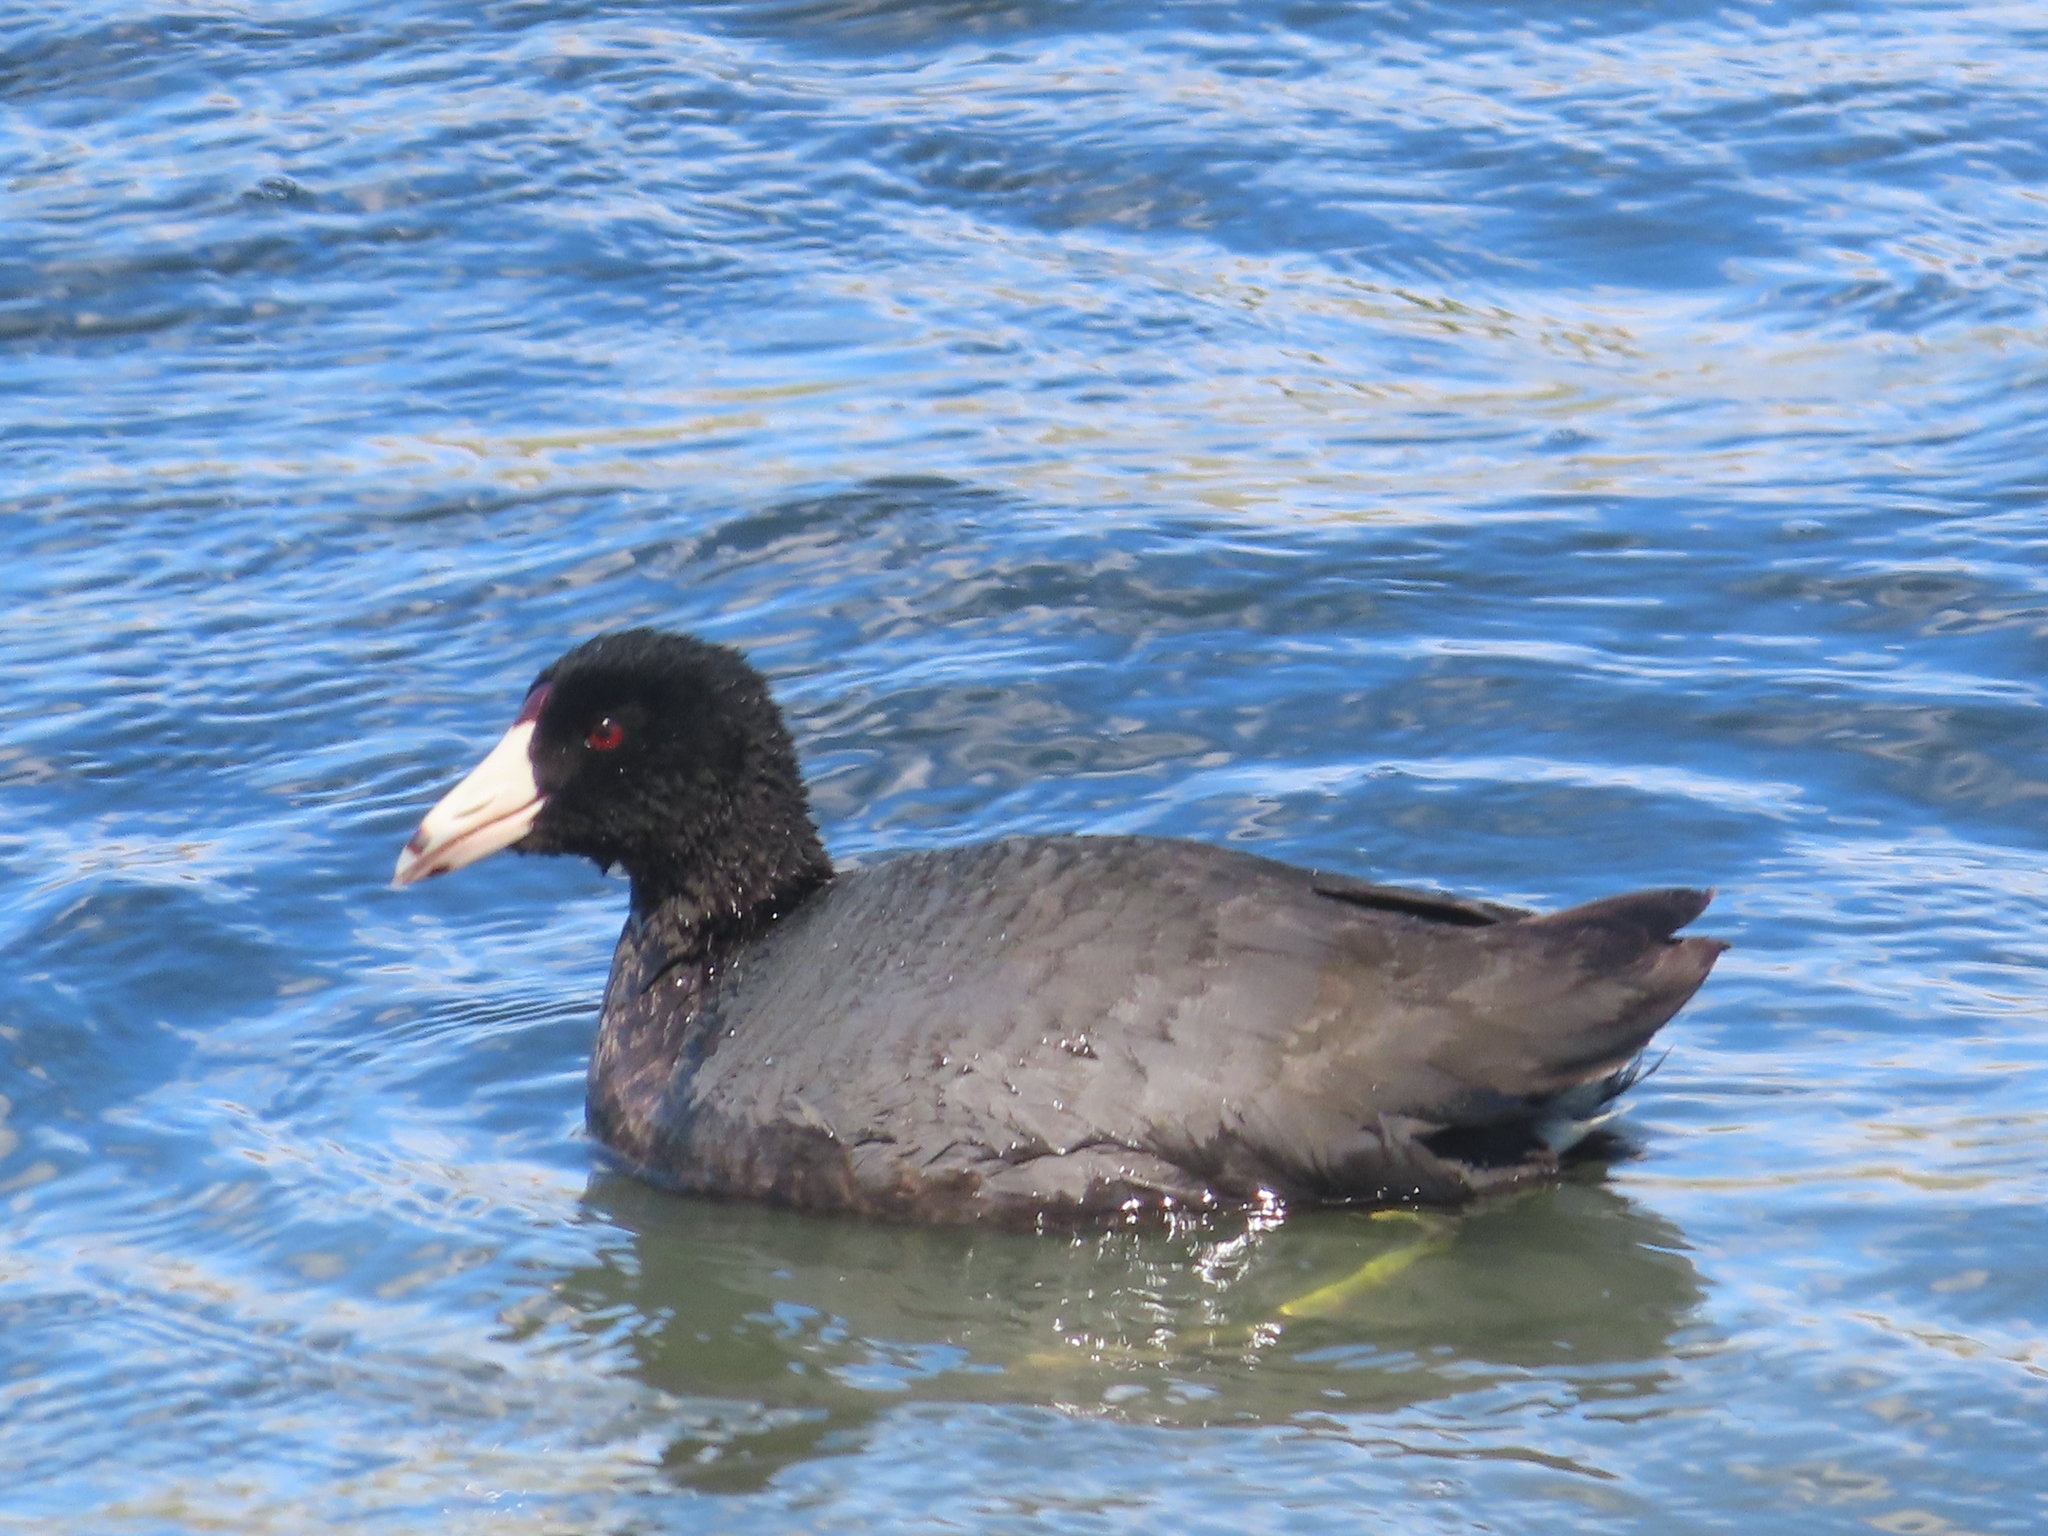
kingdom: Animalia
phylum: Chordata
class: Aves
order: Gruiformes
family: Rallidae
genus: Fulica
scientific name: Fulica americana
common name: American coot
